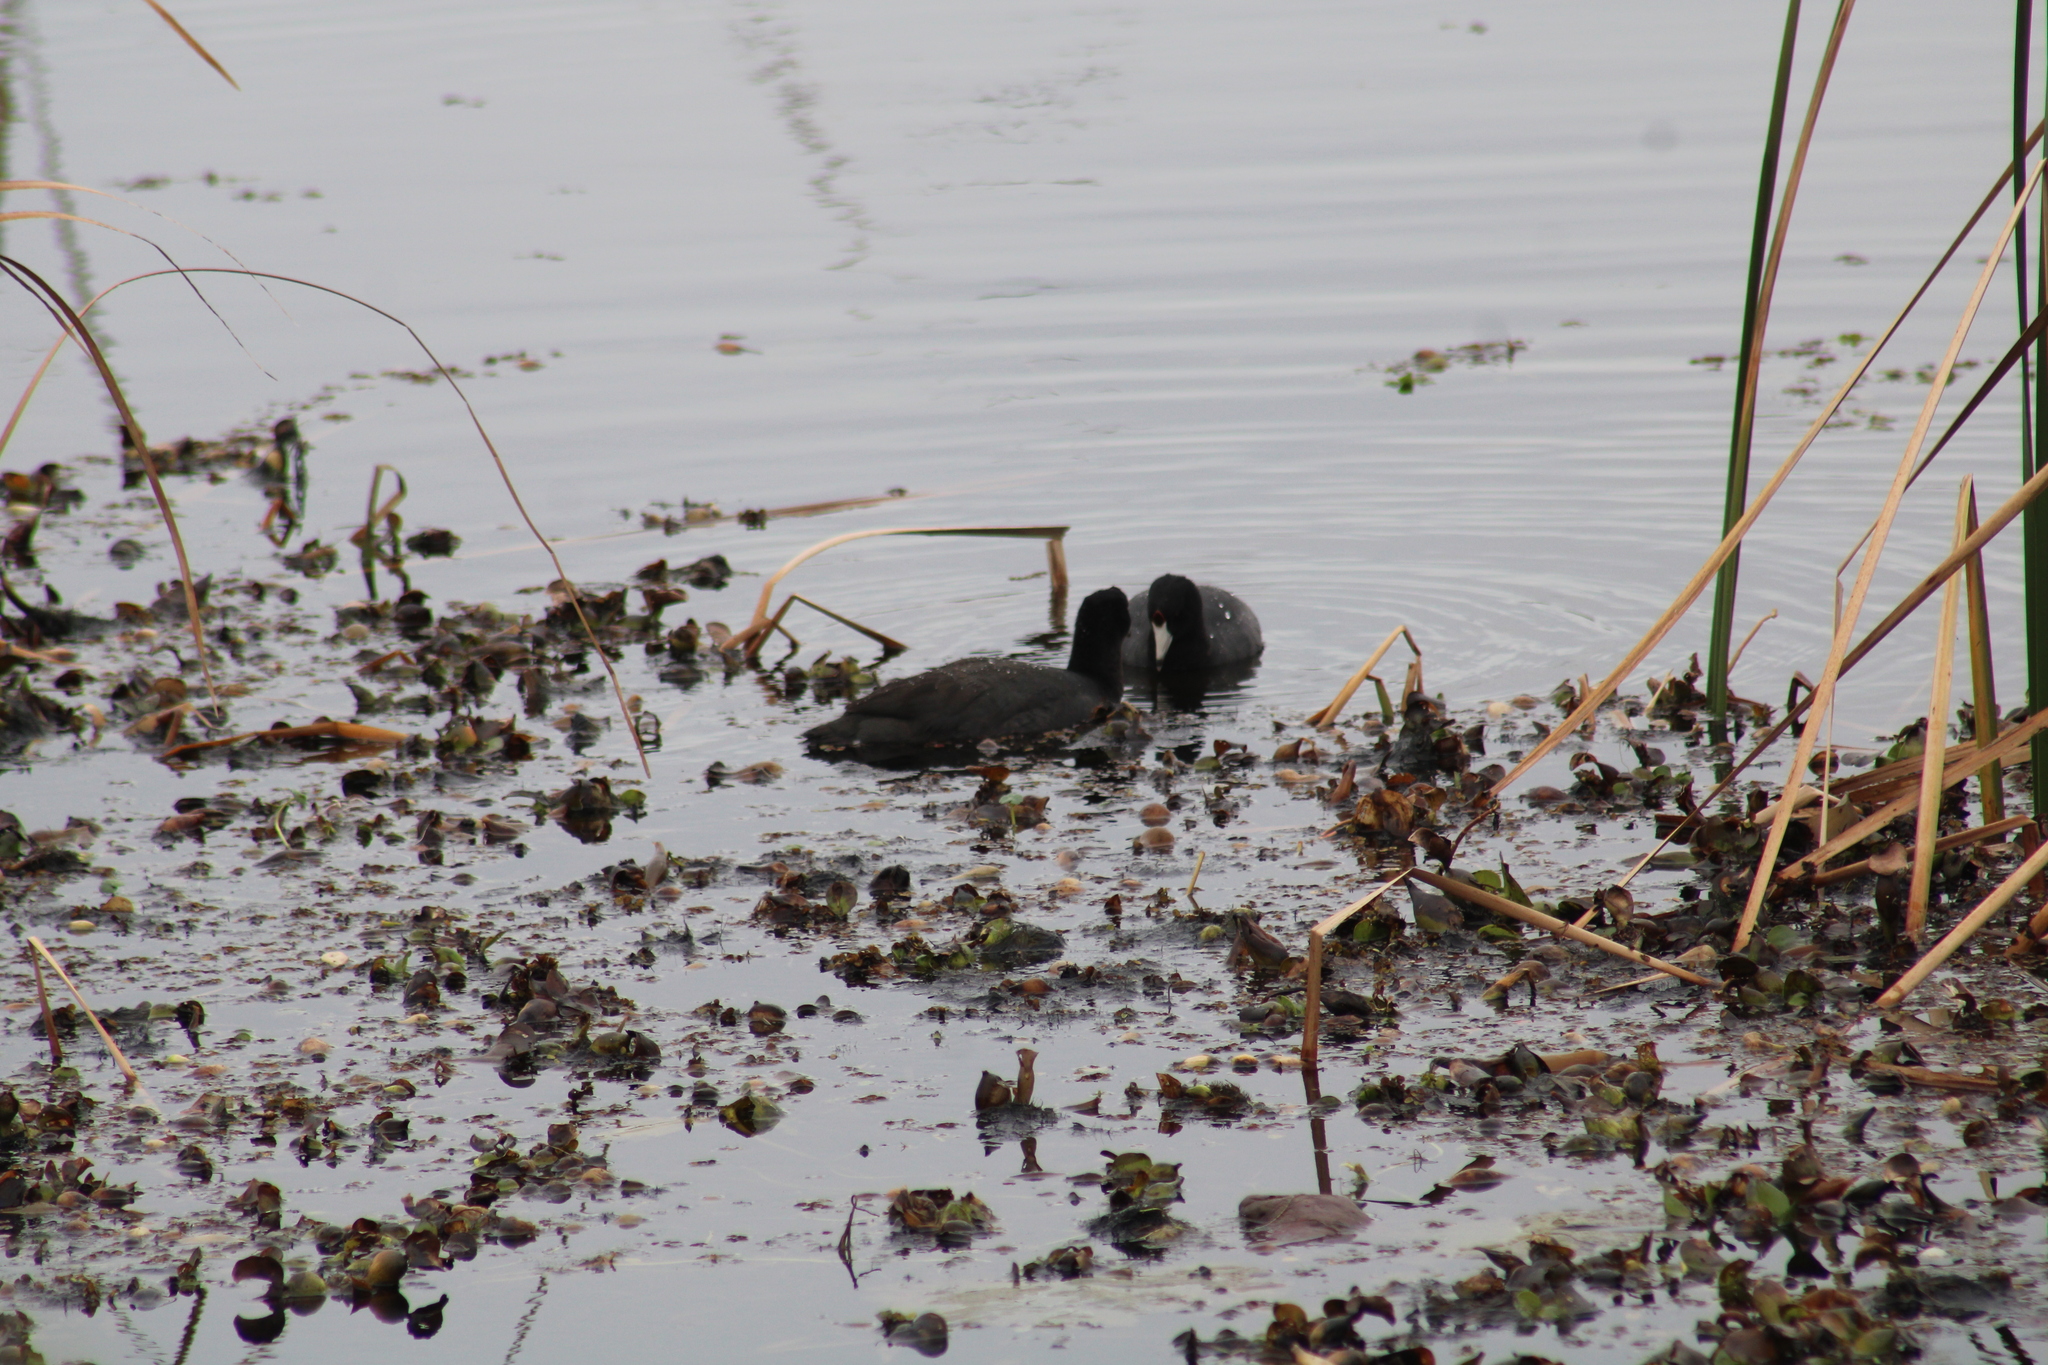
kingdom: Animalia
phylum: Chordata
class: Aves
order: Gruiformes
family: Rallidae
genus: Fulica
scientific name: Fulica americana
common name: American coot
